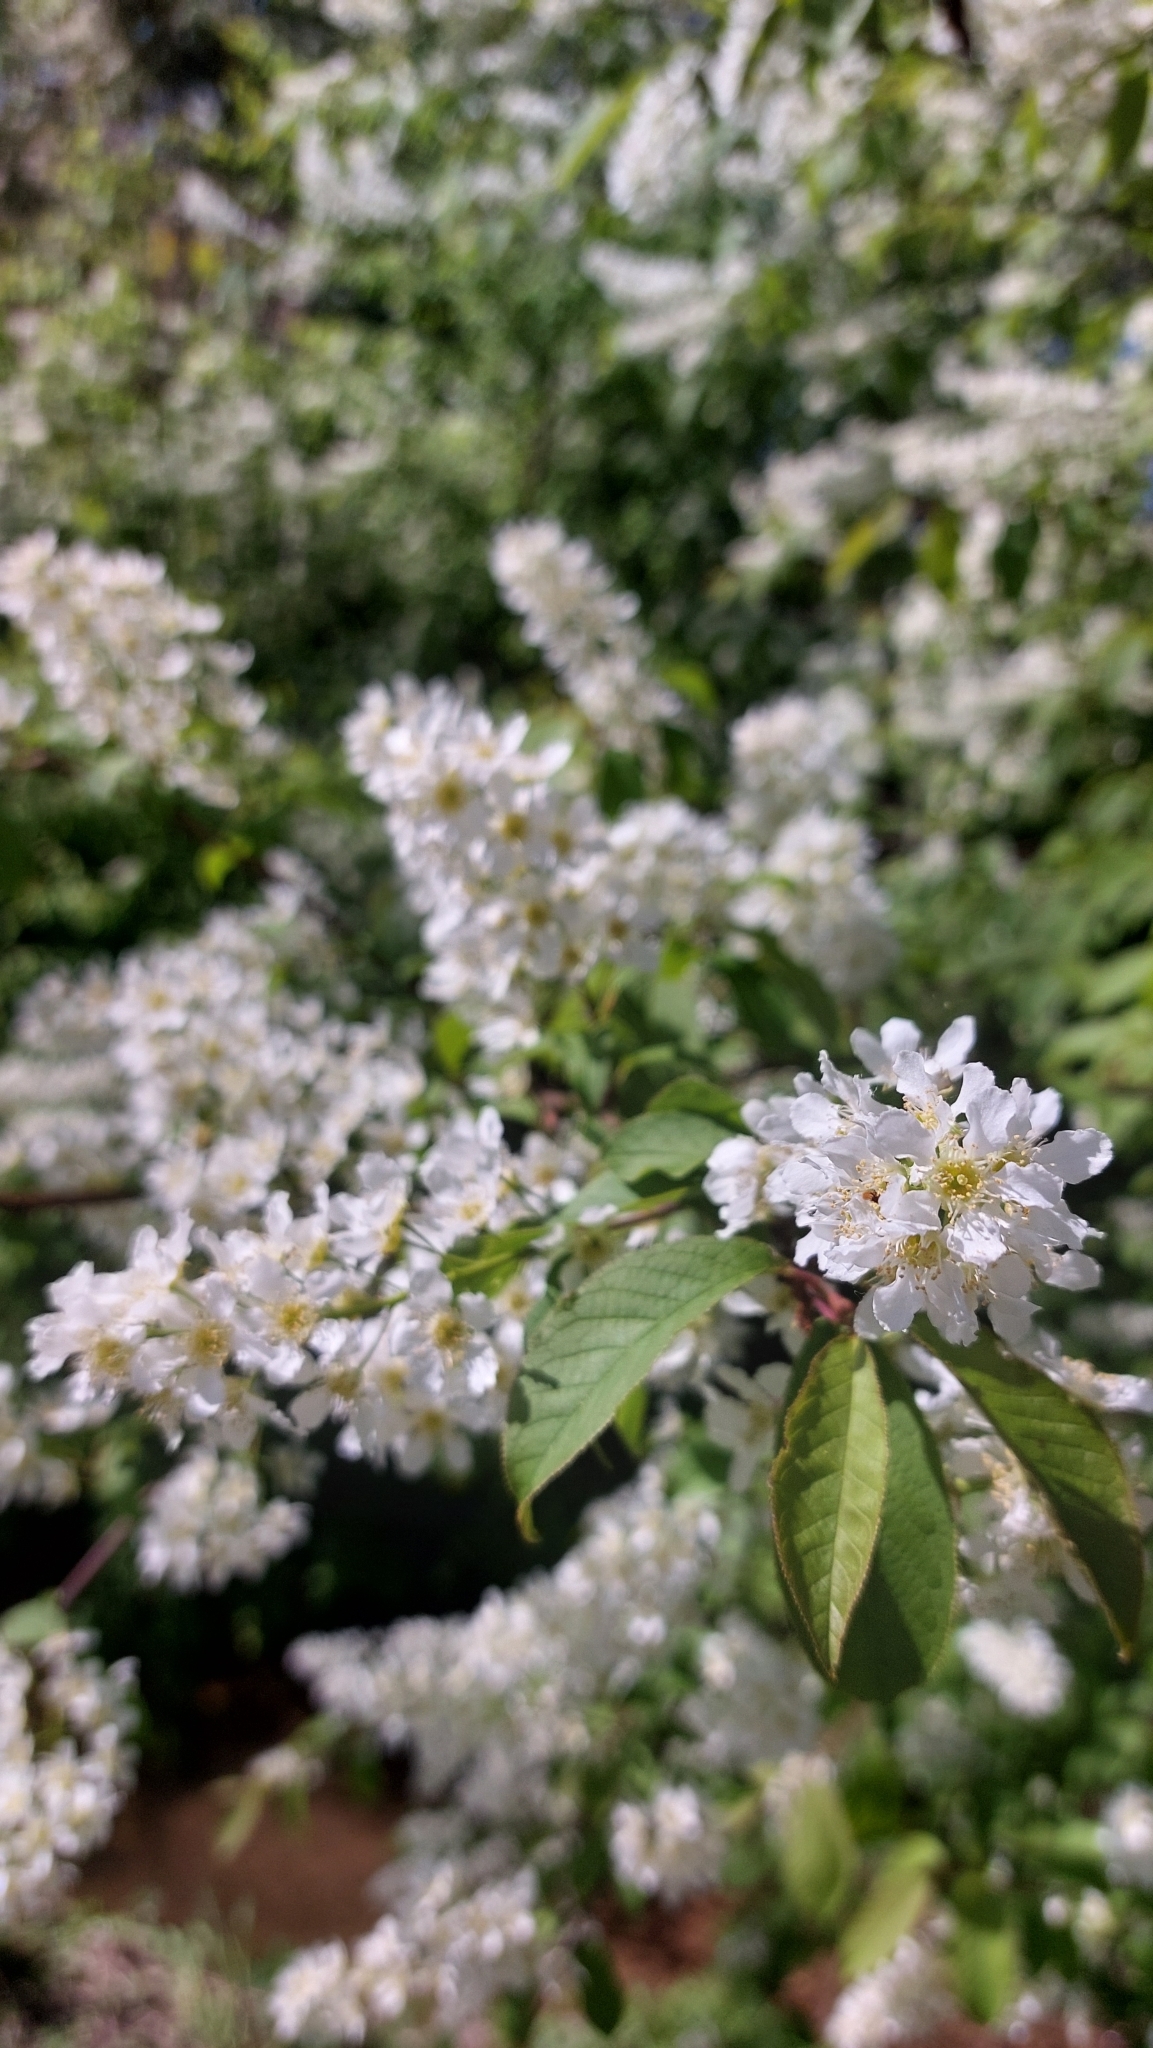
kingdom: Plantae
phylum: Tracheophyta
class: Magnoliopsida
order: Rosales
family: Rosaceae
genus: Prunus
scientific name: Prunus padus
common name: Bird cherry
